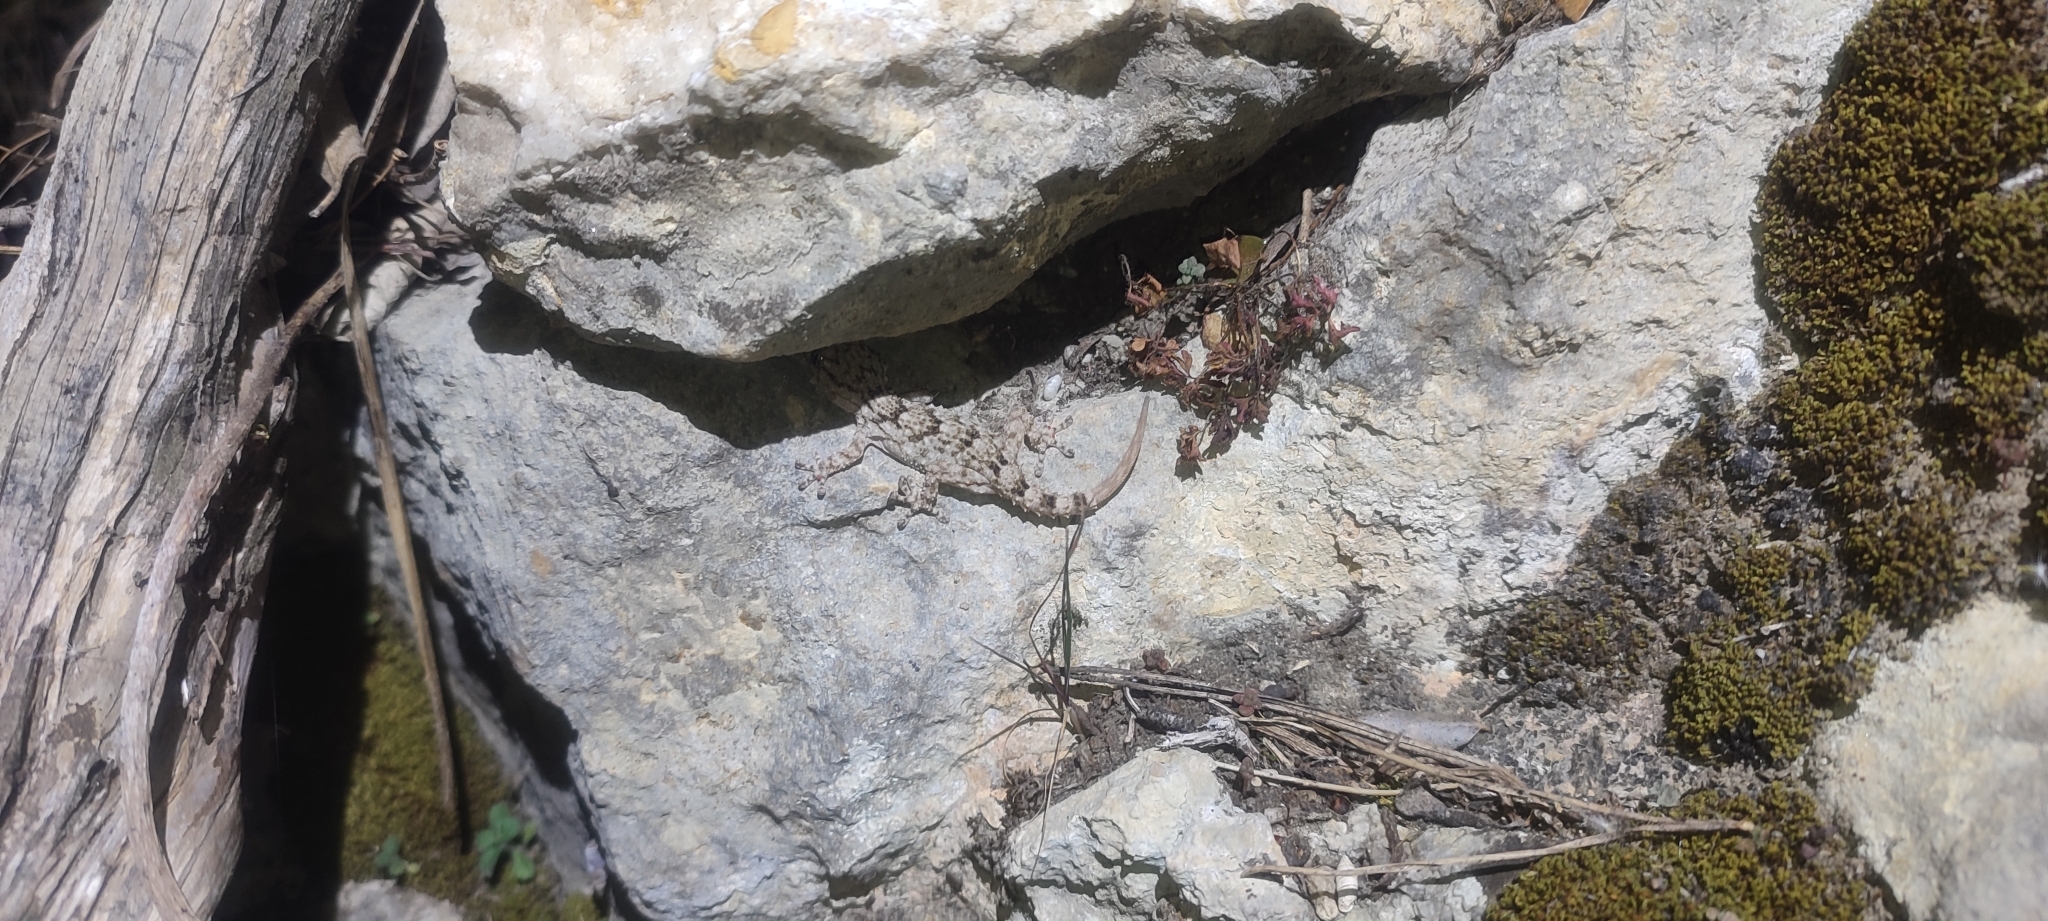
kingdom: Animalia
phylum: Chordata
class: Squamata
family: Phyllodactylidae
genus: Tarentola
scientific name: Tarentola mauritanica
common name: Moorish gecko
